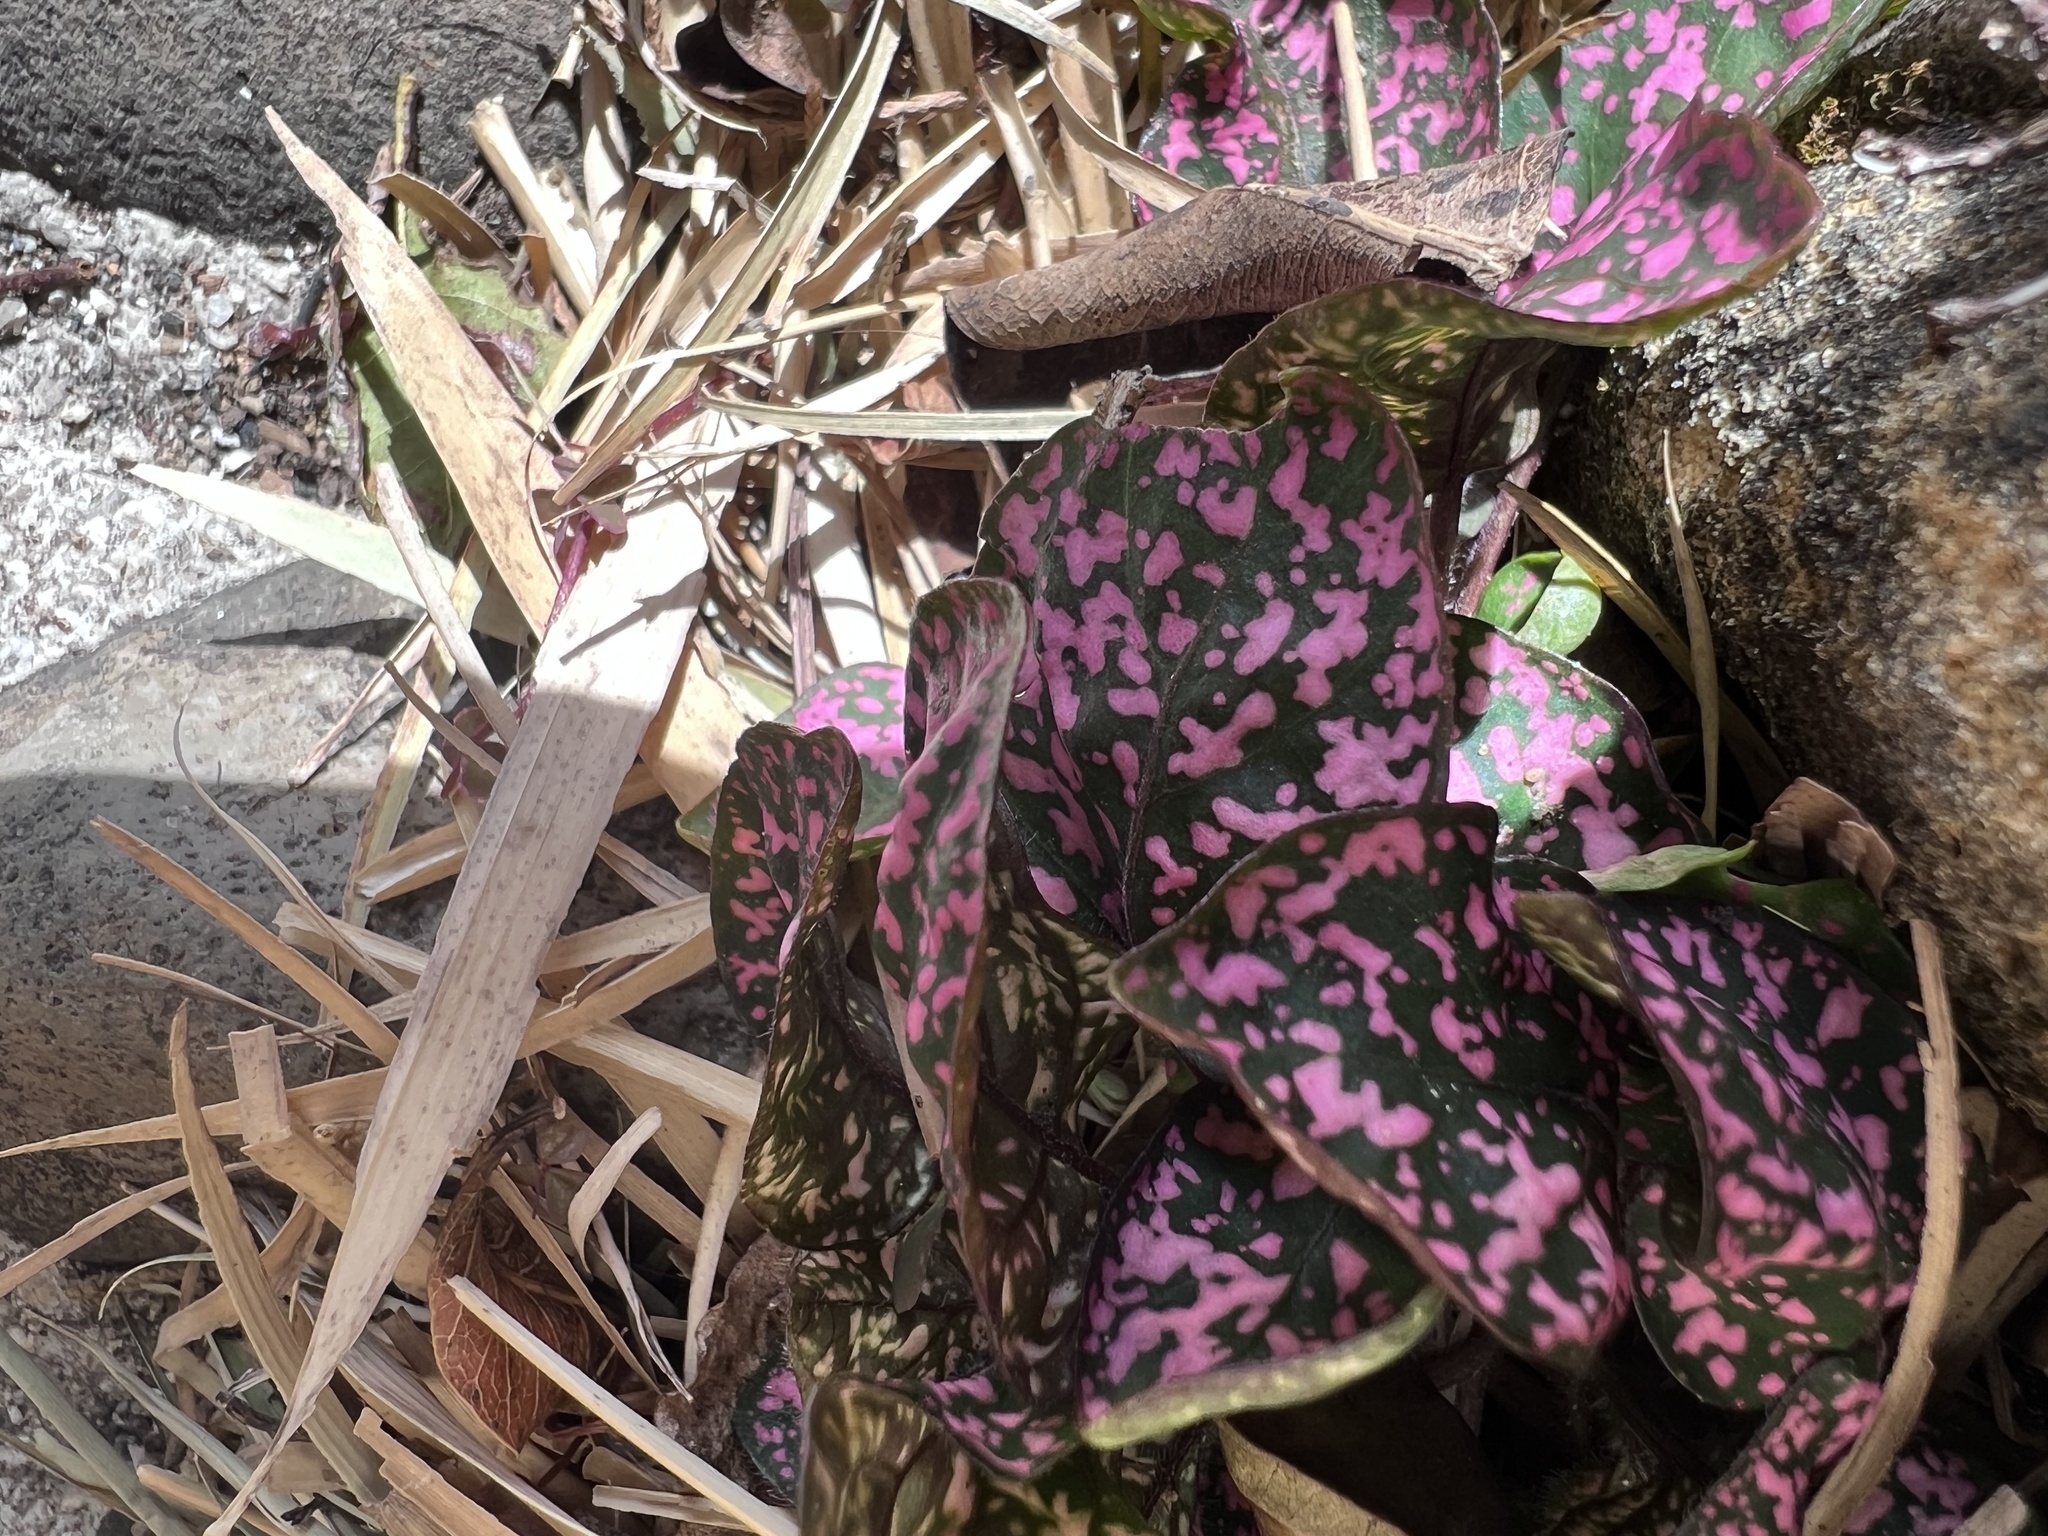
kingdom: Plantae
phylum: Tracheophyta
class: Magnoliopsida
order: Lamiales
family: Acanthaceae
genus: Hypoestes
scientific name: Hypoestes phyllostachya
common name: Polkadot-plant
